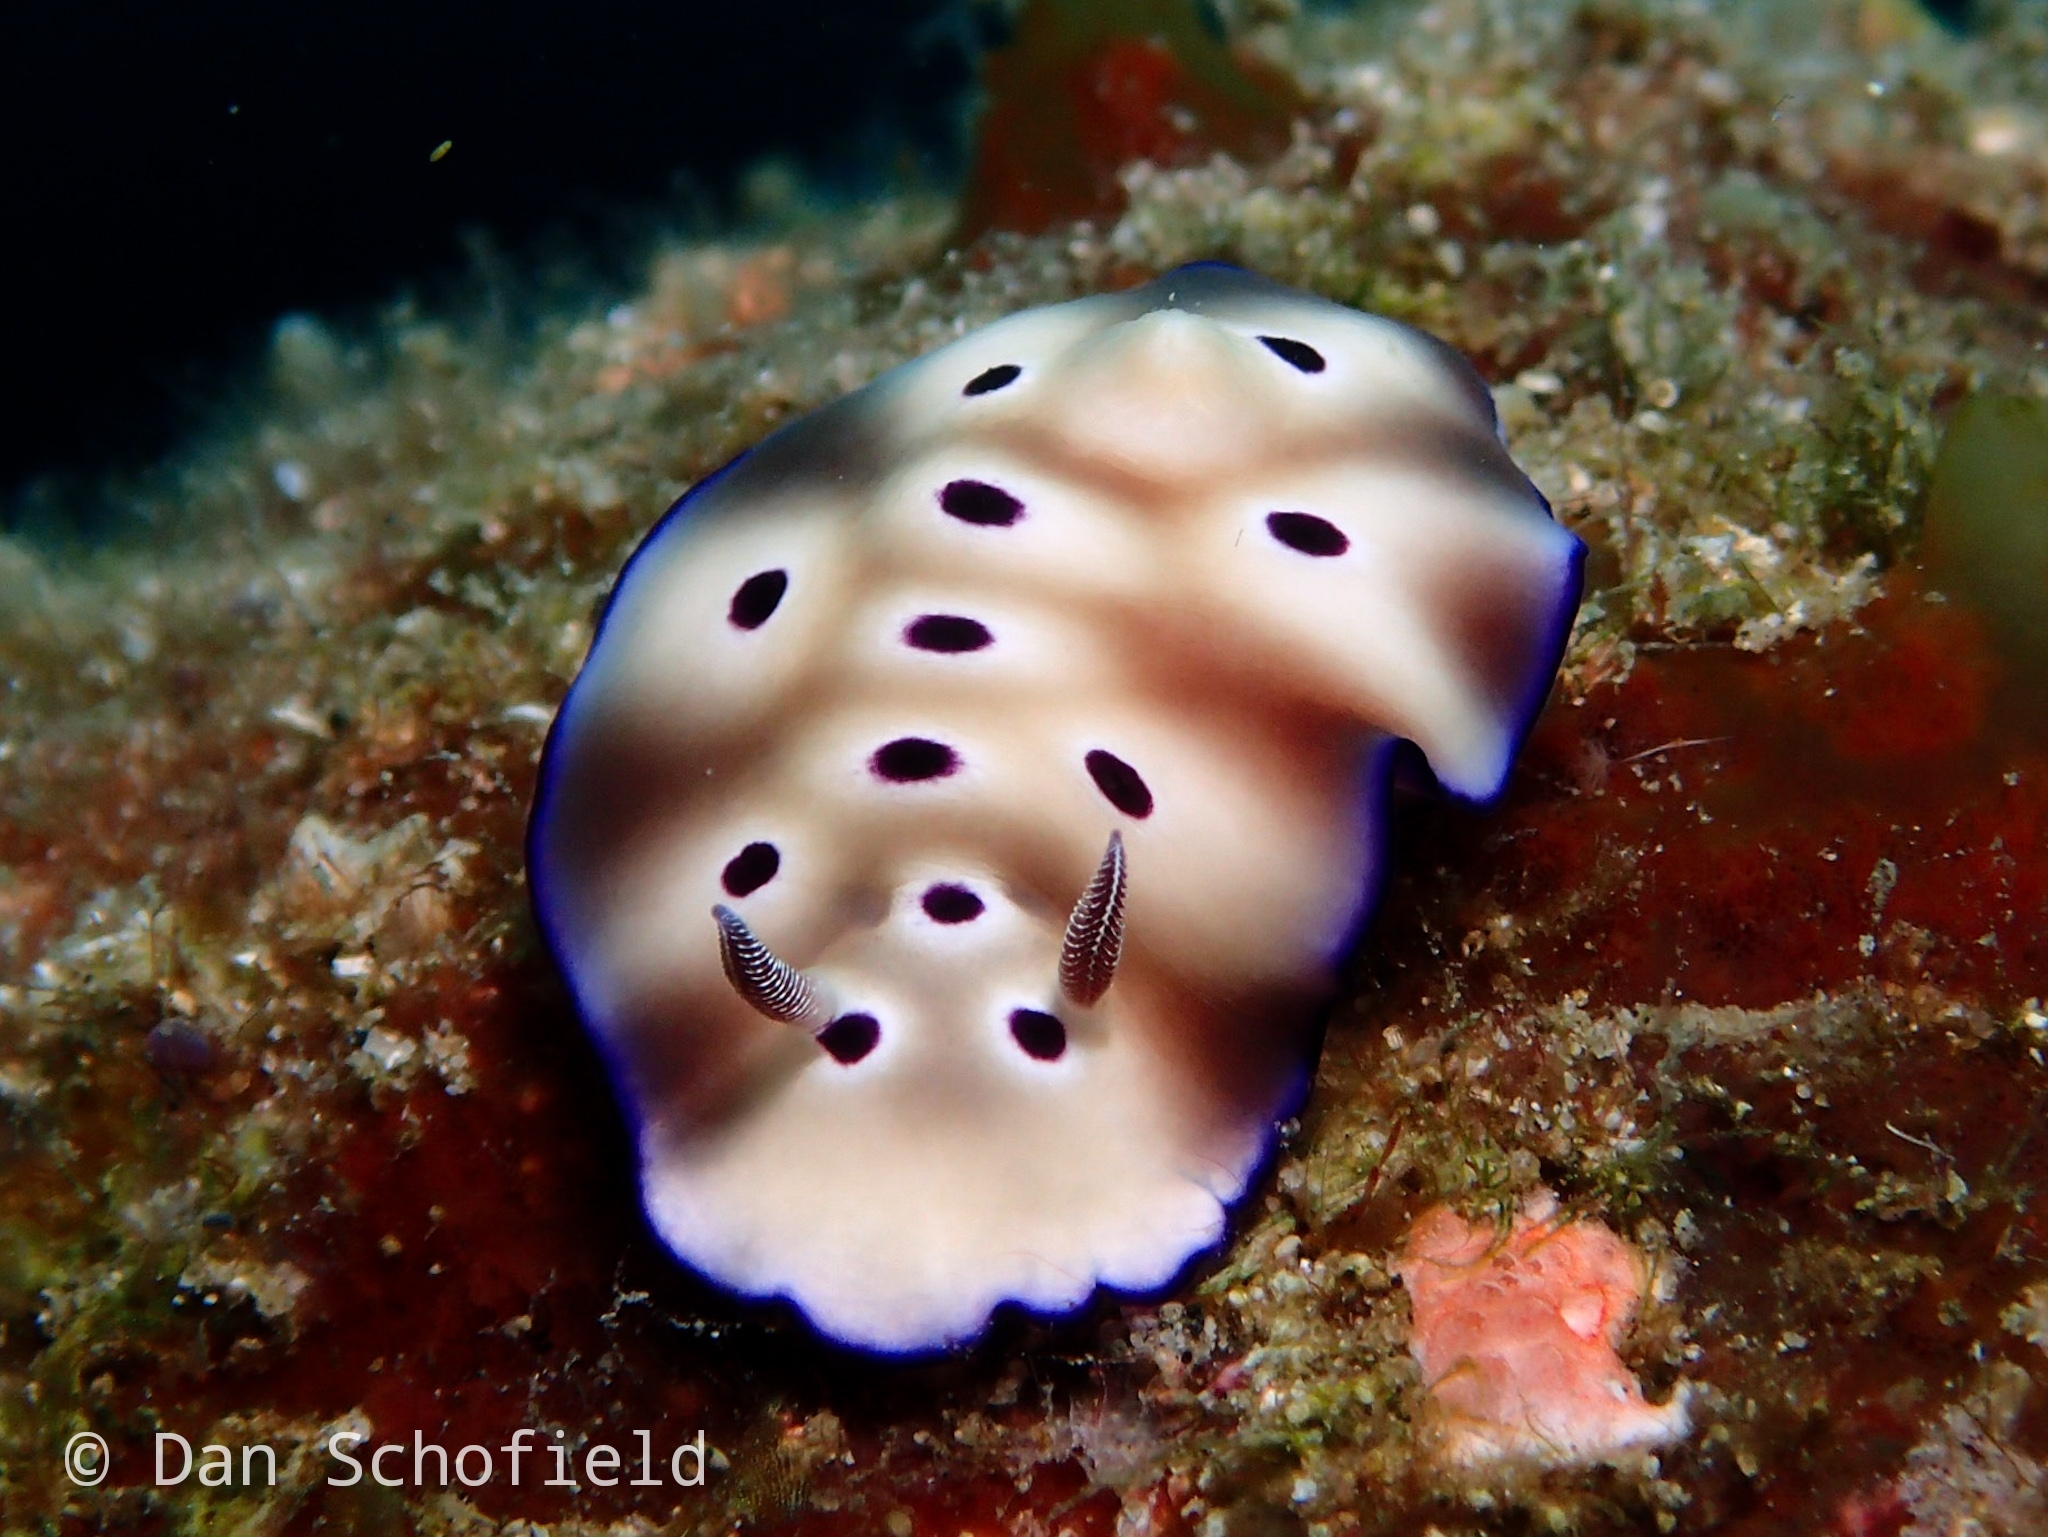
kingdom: Animalia
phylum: Mollusca
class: Gastropoda
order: Nudibranchia
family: Chromodorididae
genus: Hypselodoris
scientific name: Hypselodoris tryoni
